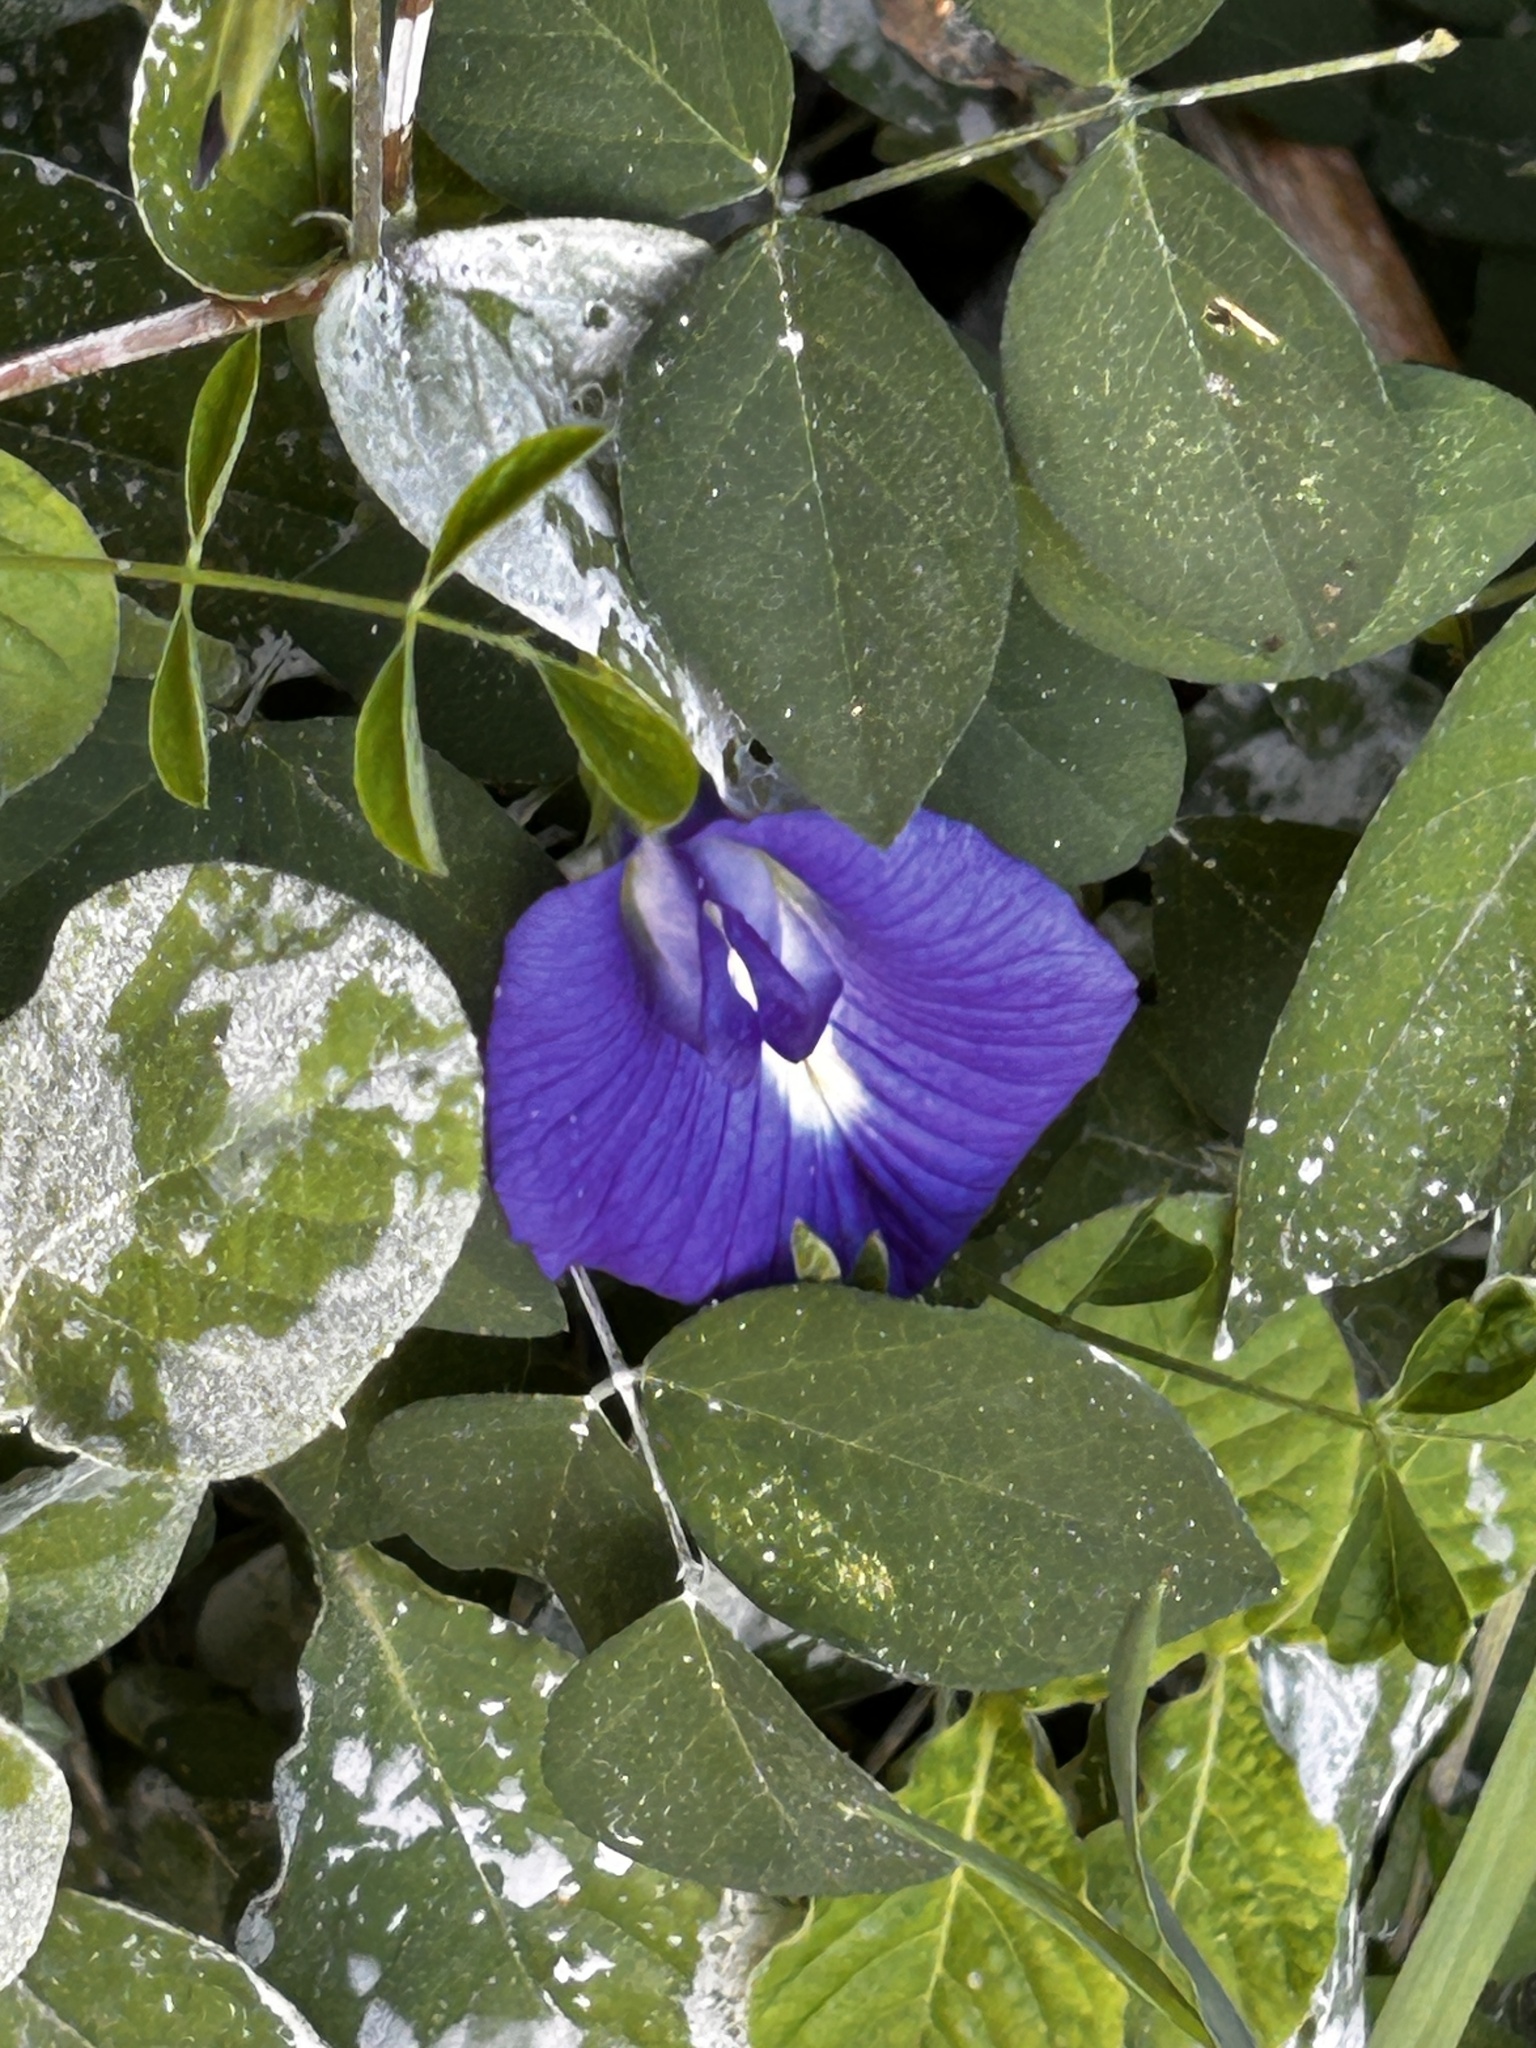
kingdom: Plantae
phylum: Tracheophyta
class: Magnoliopsida
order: Fabales
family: Fabaceae
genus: Clitoria
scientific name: Clitoria ternatea
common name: Asian pigeonwings
